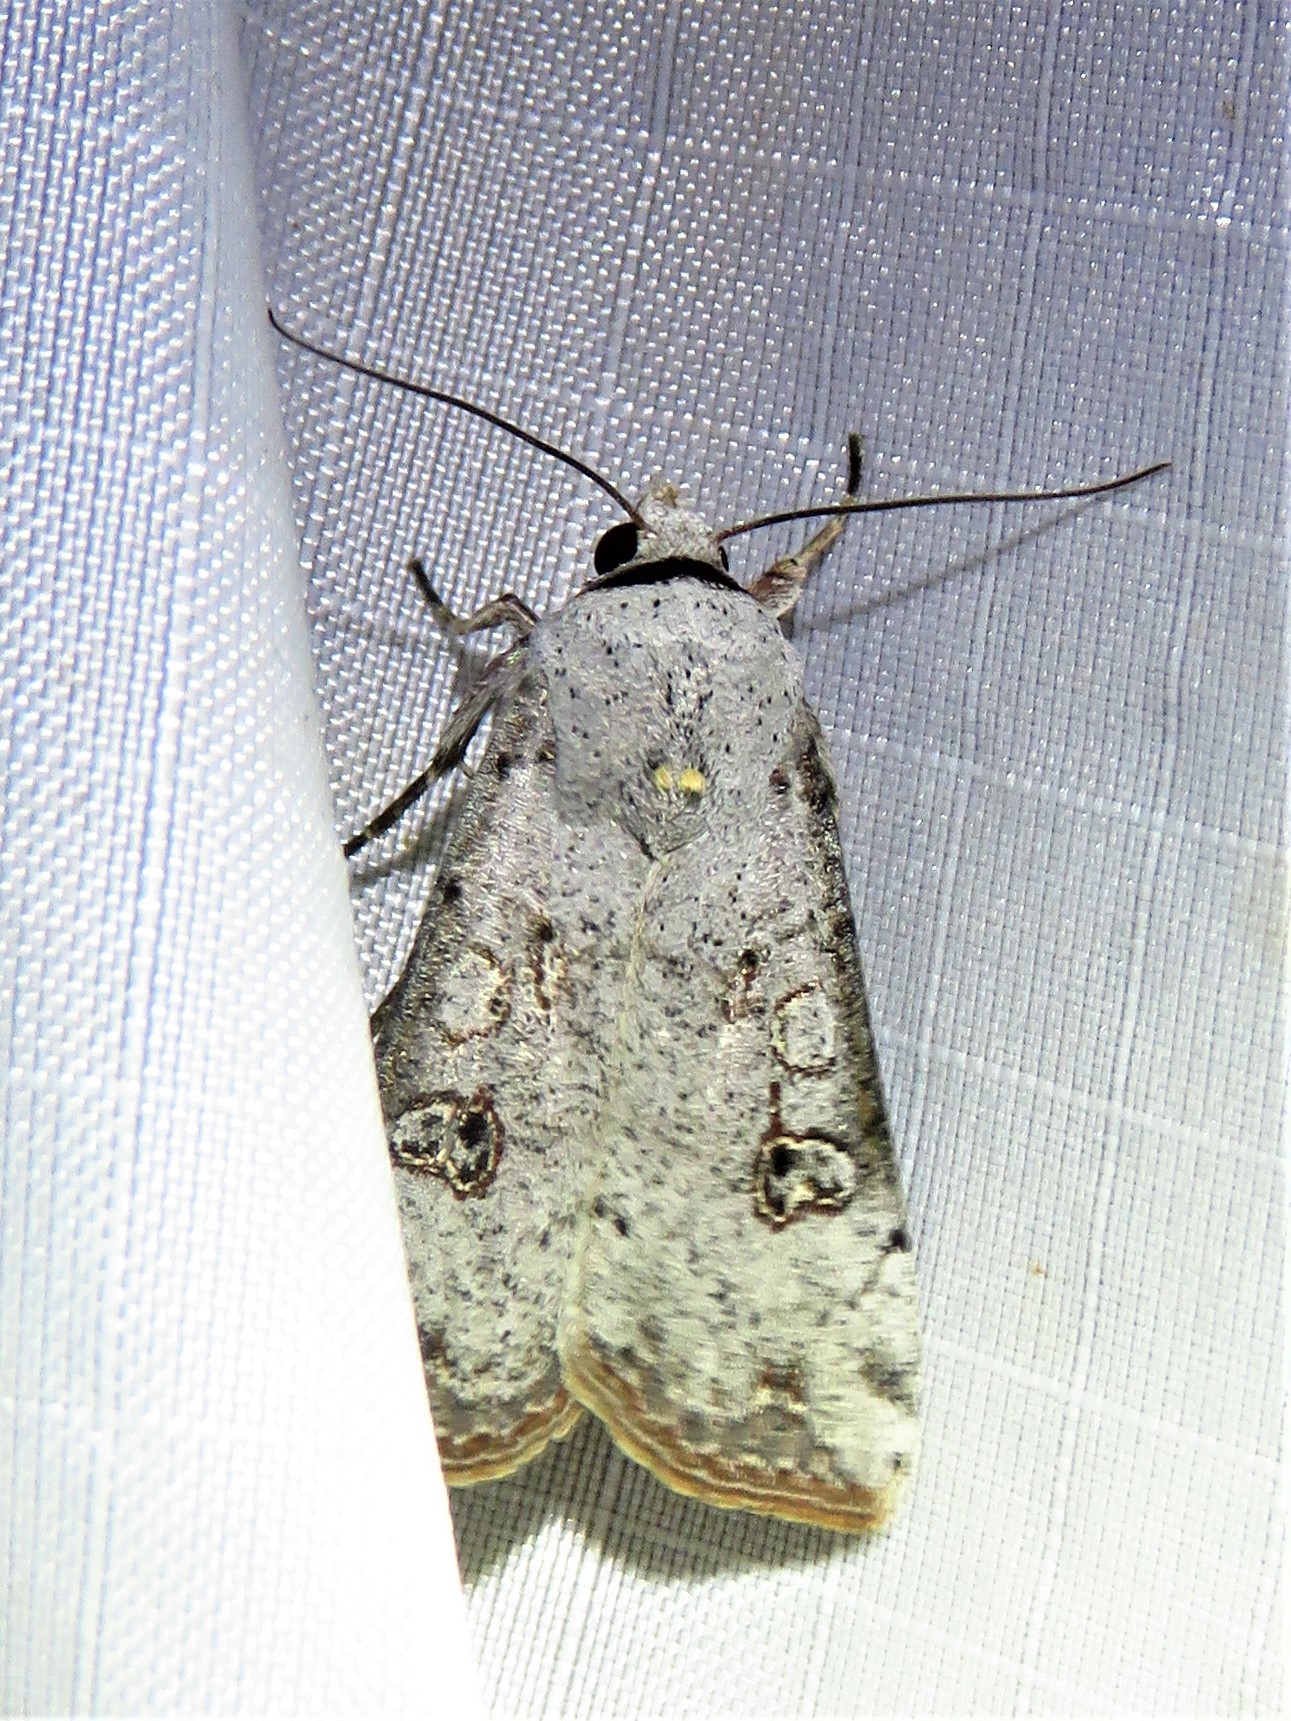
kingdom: Animalia
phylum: Arthropoda
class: Insecta
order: Lepidoptera
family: Noctuidae
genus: Anicla
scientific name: Anicla infecta
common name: Green cutworm
